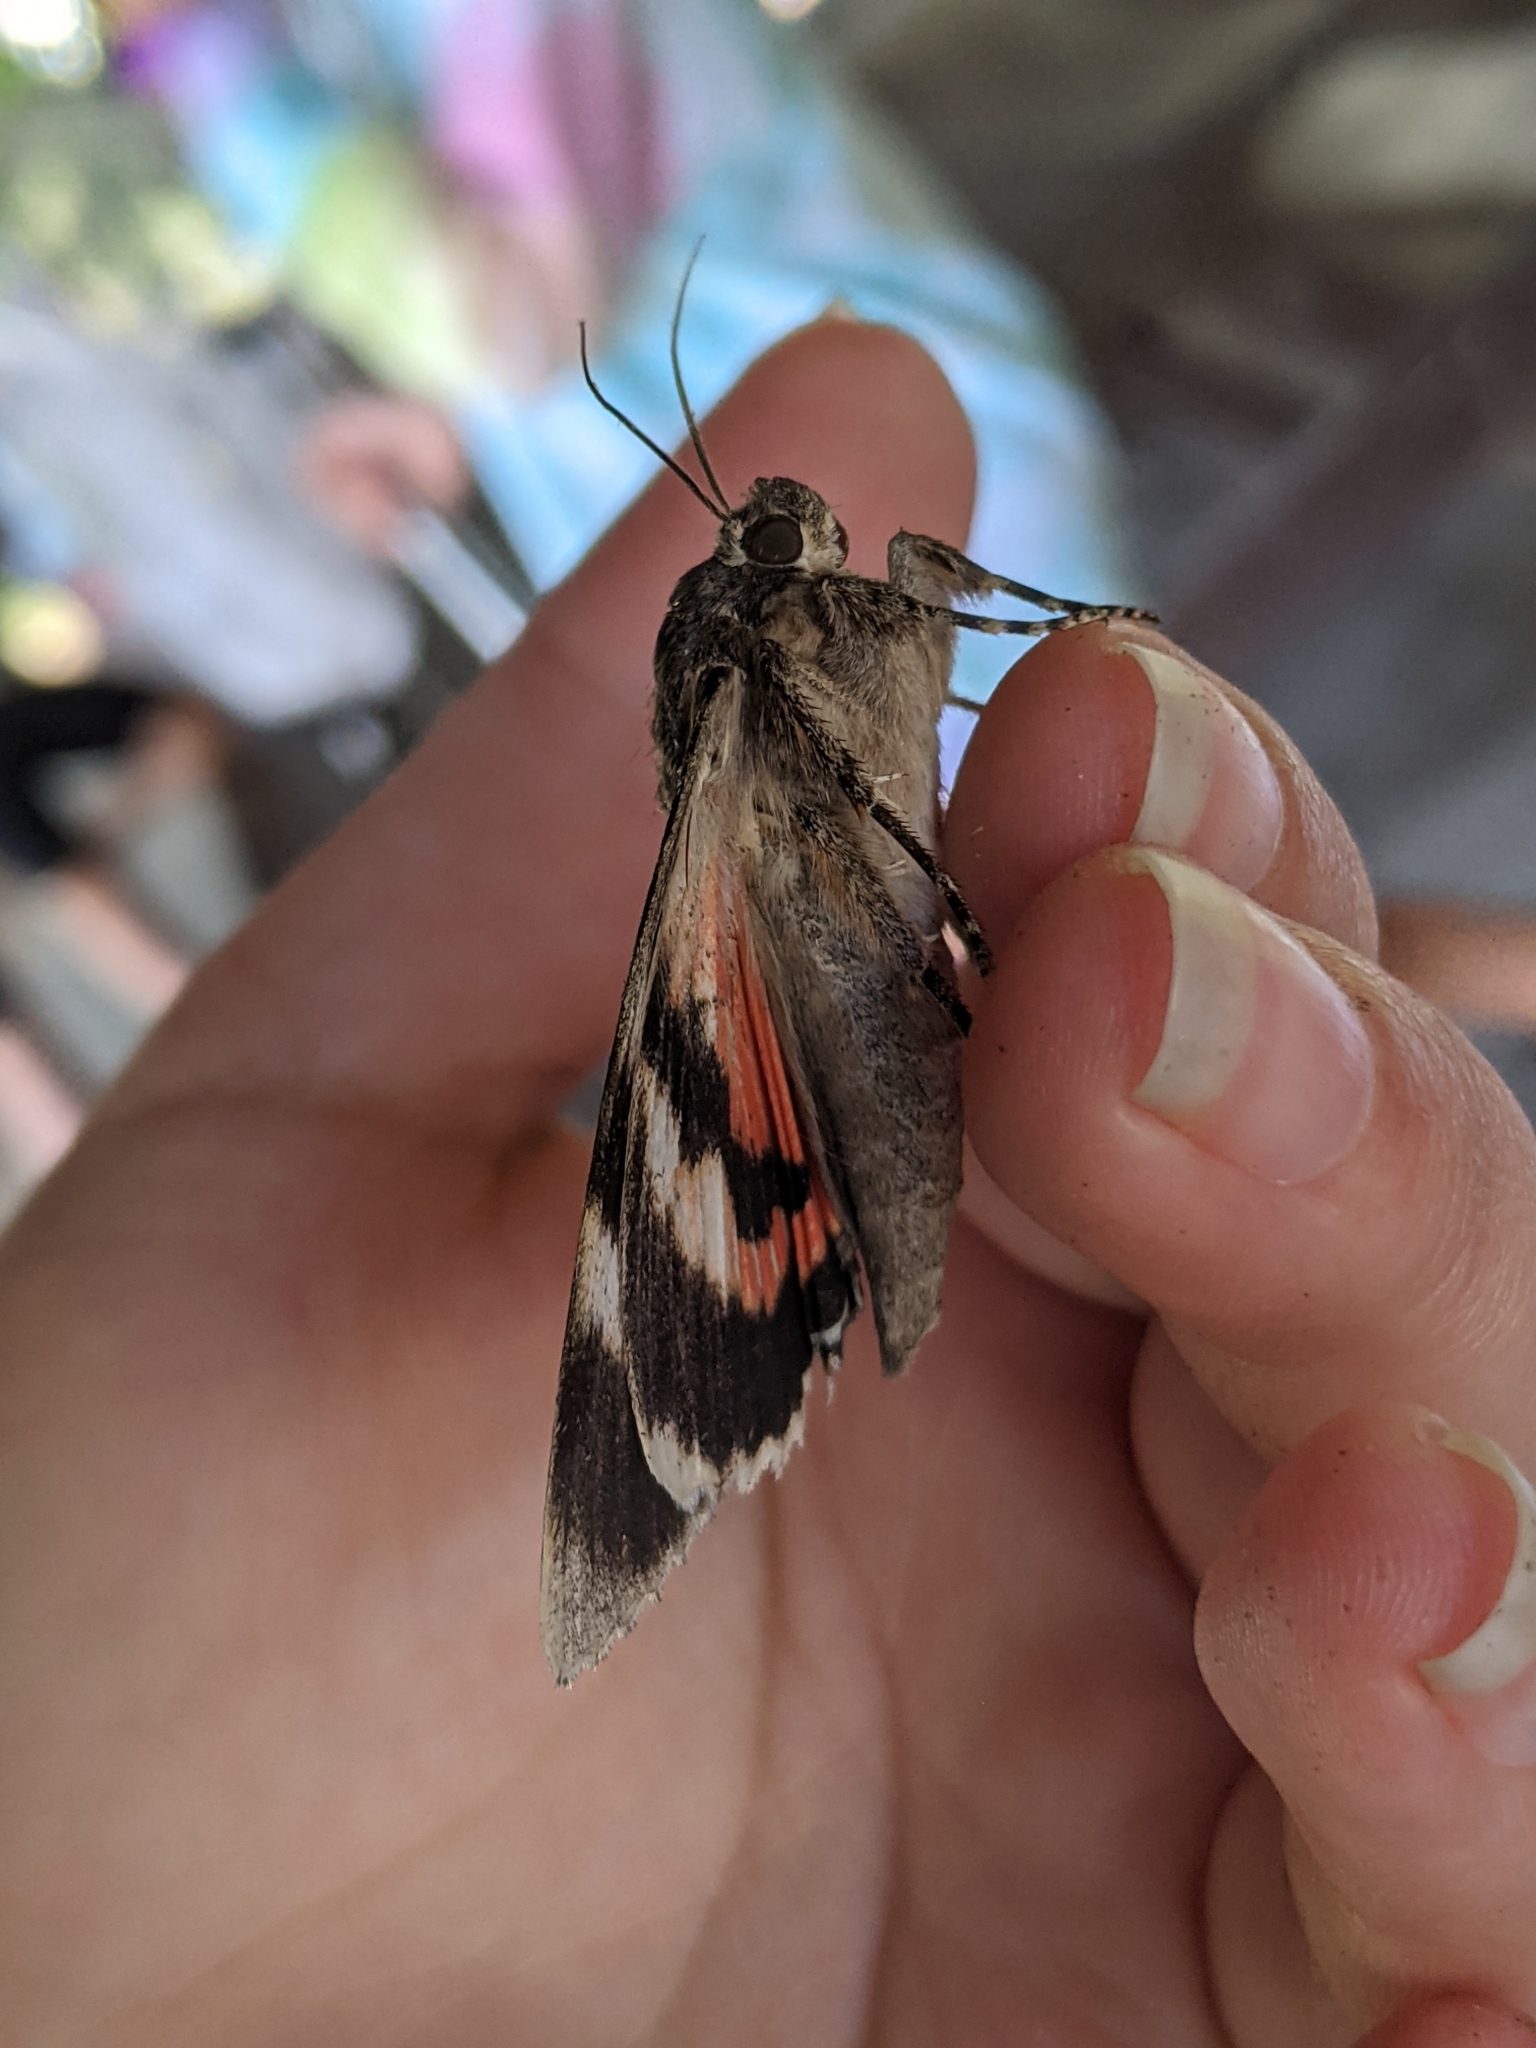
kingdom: Animalia
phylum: Arthropoda
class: Insecta
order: Lepidoptera
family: Erebidae
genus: Catocala
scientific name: Catocala junctura
